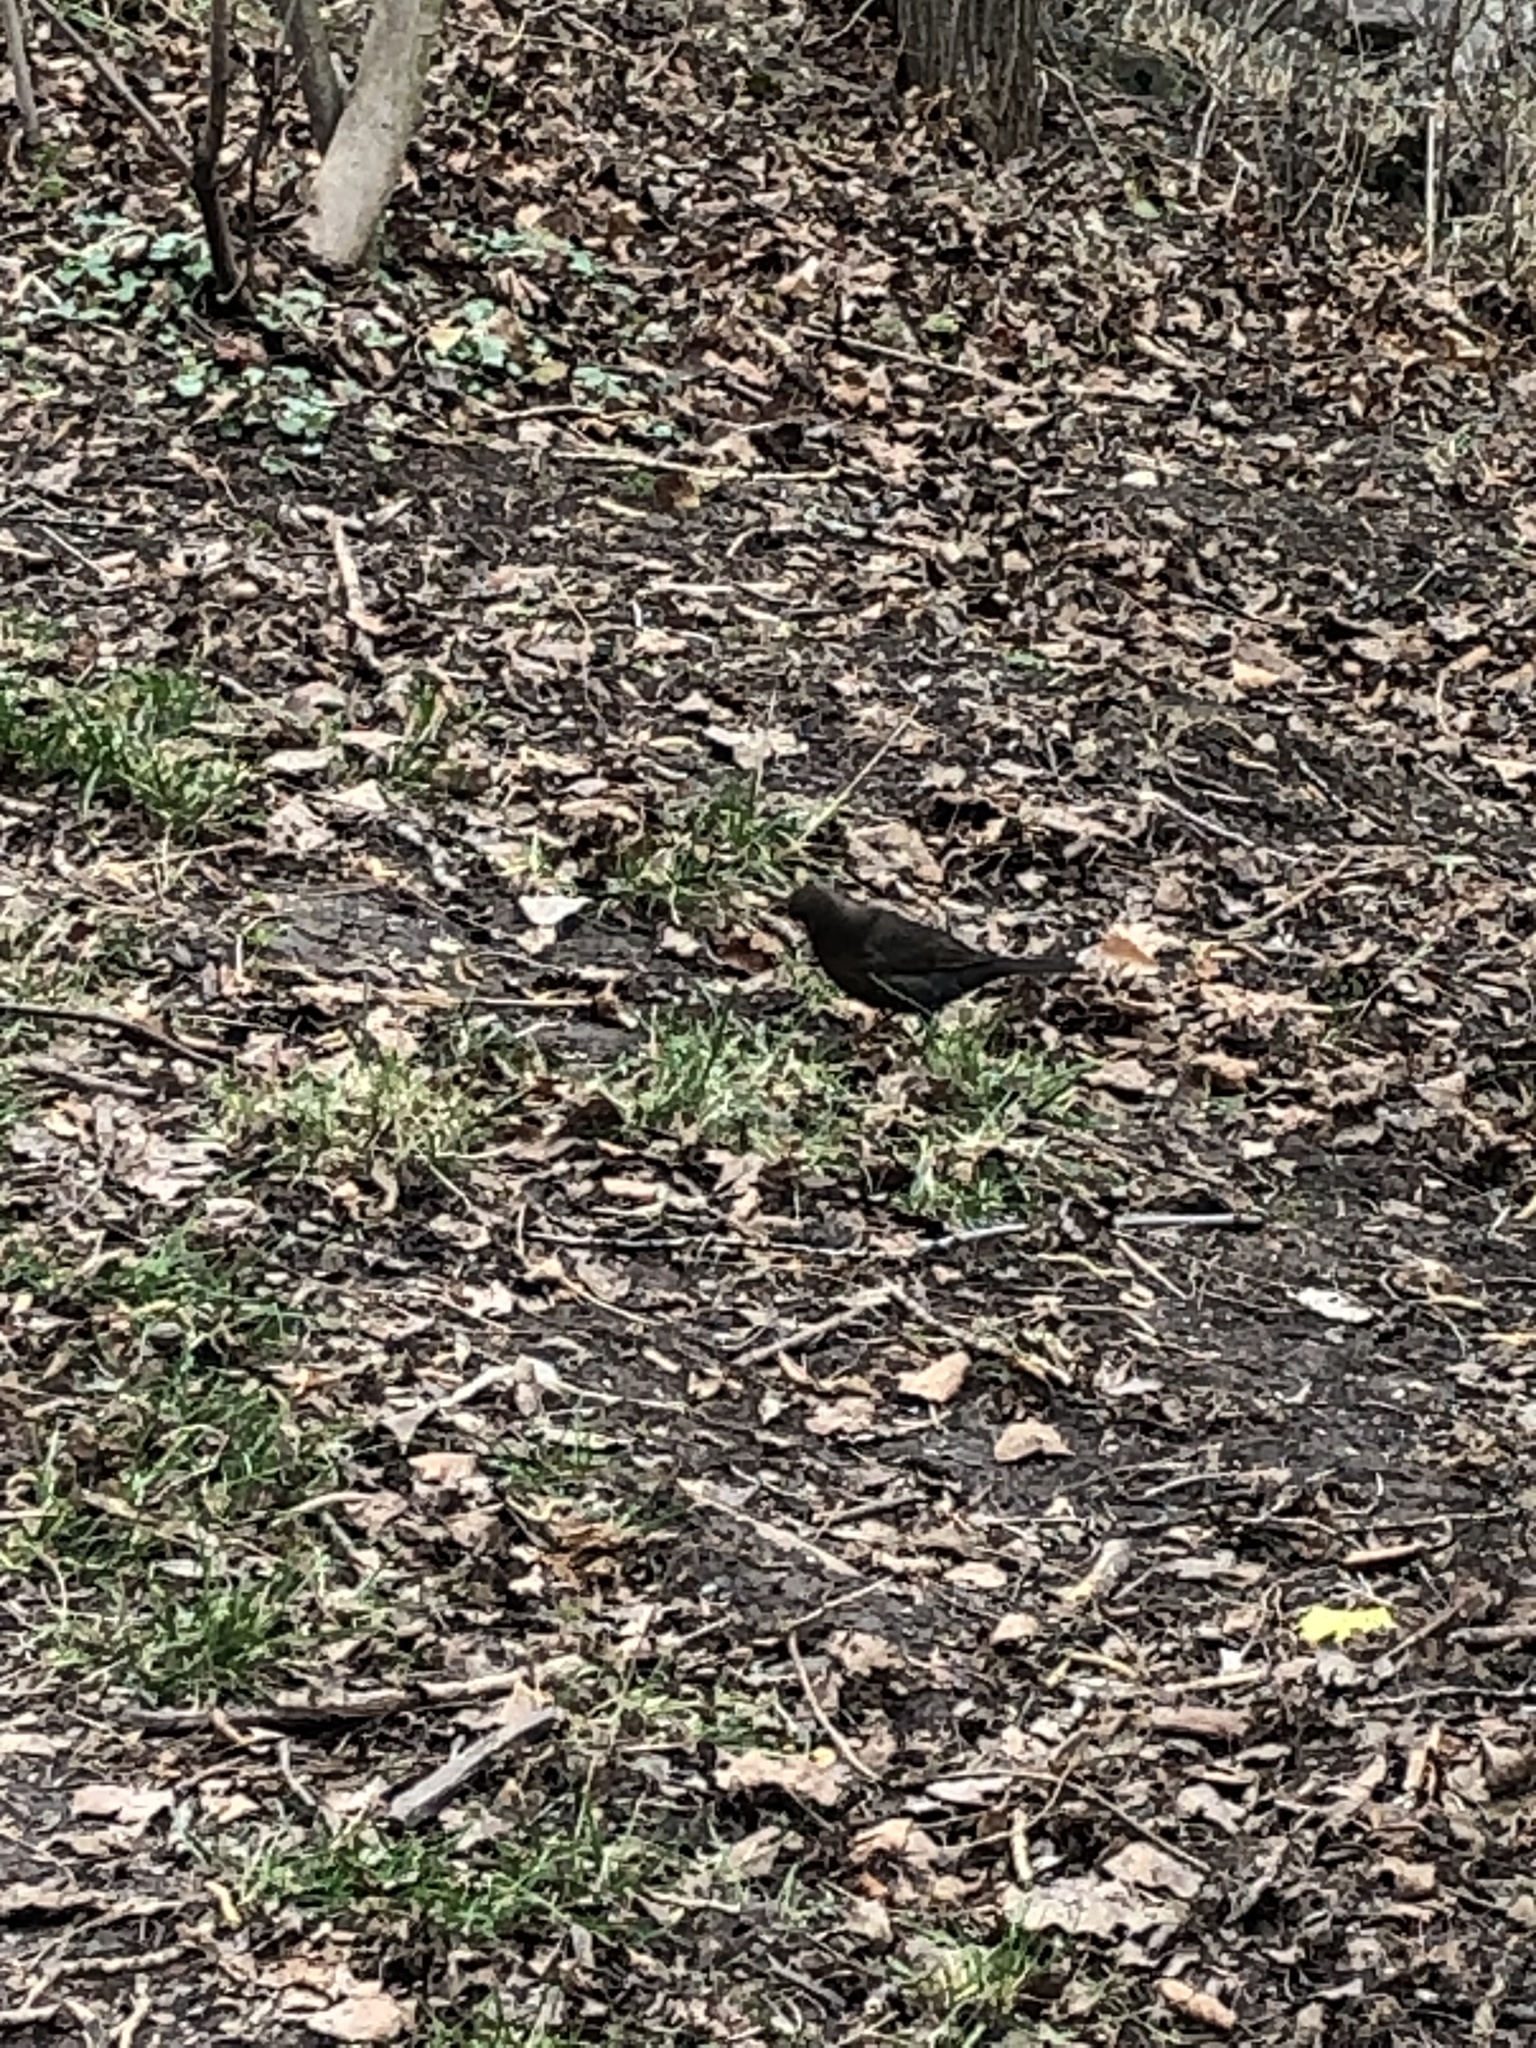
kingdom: Animalia
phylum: Chordata
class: Aves
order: Passeriformes
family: Turdidae
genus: Turdus
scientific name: Turdus merula
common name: Common blackbird
